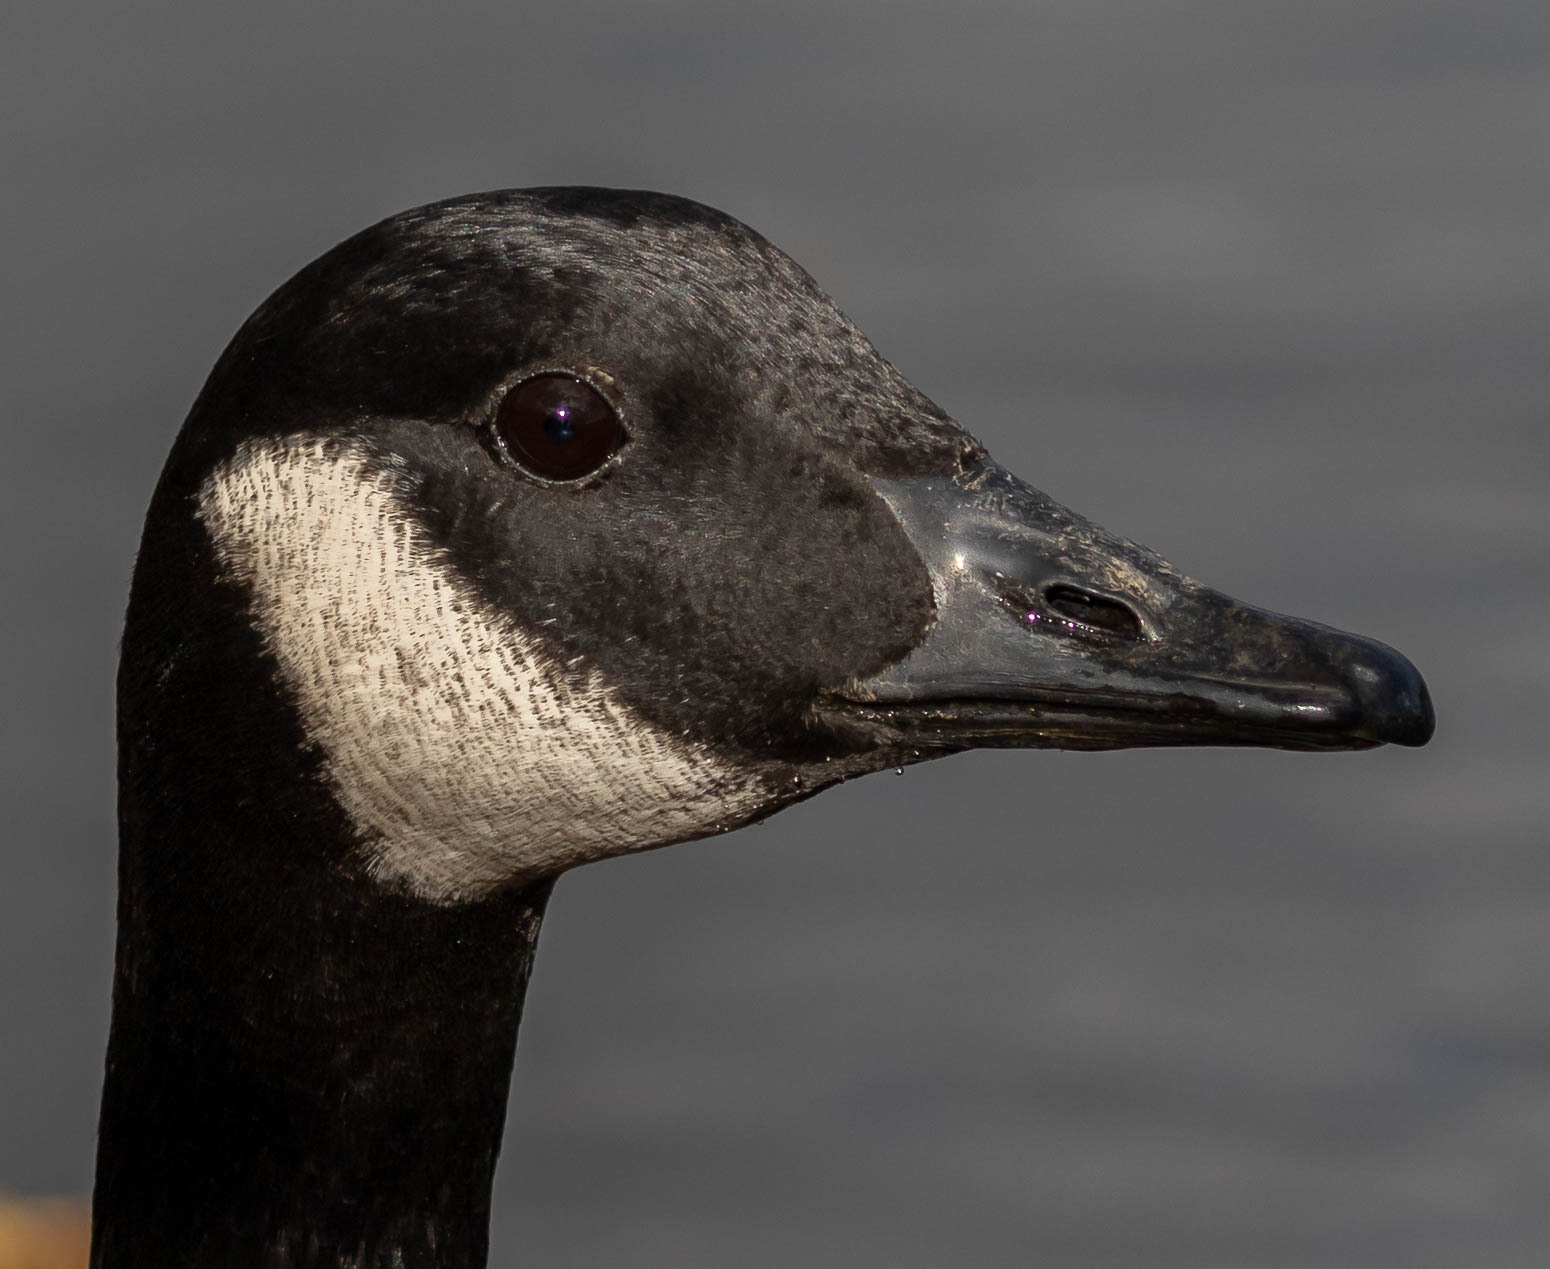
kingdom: Animalia
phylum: Chordata
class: Aves
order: Anseriformes
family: Anatidae
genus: Branta
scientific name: Branta canadensis
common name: Canada goose
